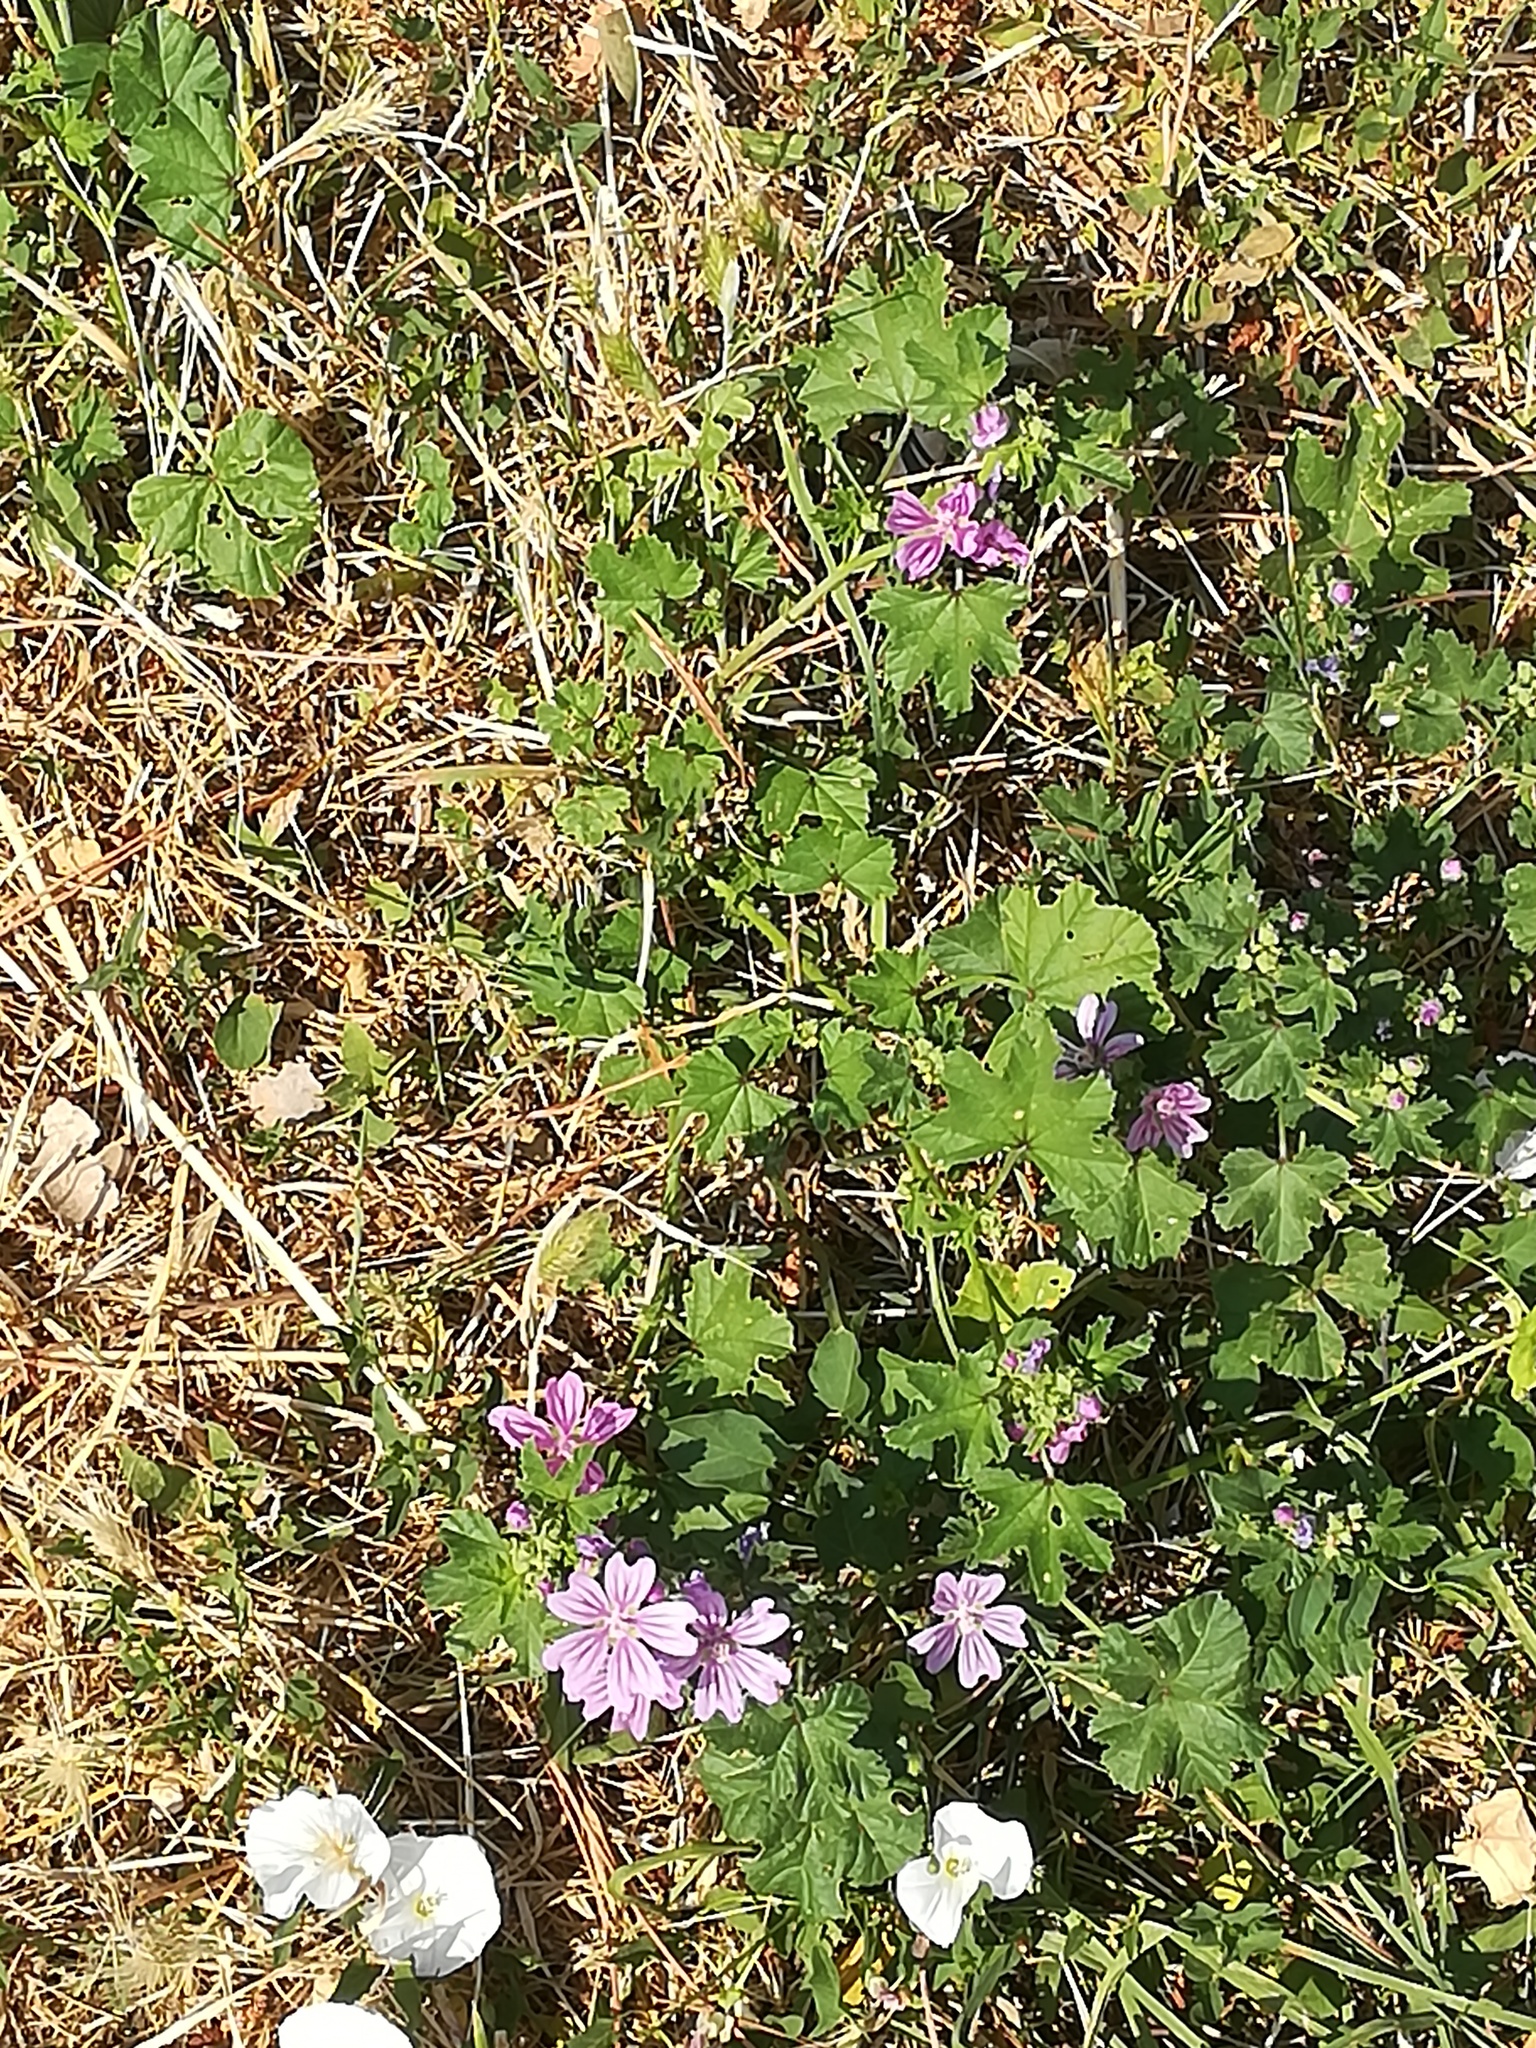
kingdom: Plantae
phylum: Tracheophyta
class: Magnoliopsida
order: Malvales
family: Malvaceae
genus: Malva
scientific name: Malva sylvestris
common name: Common mallow
